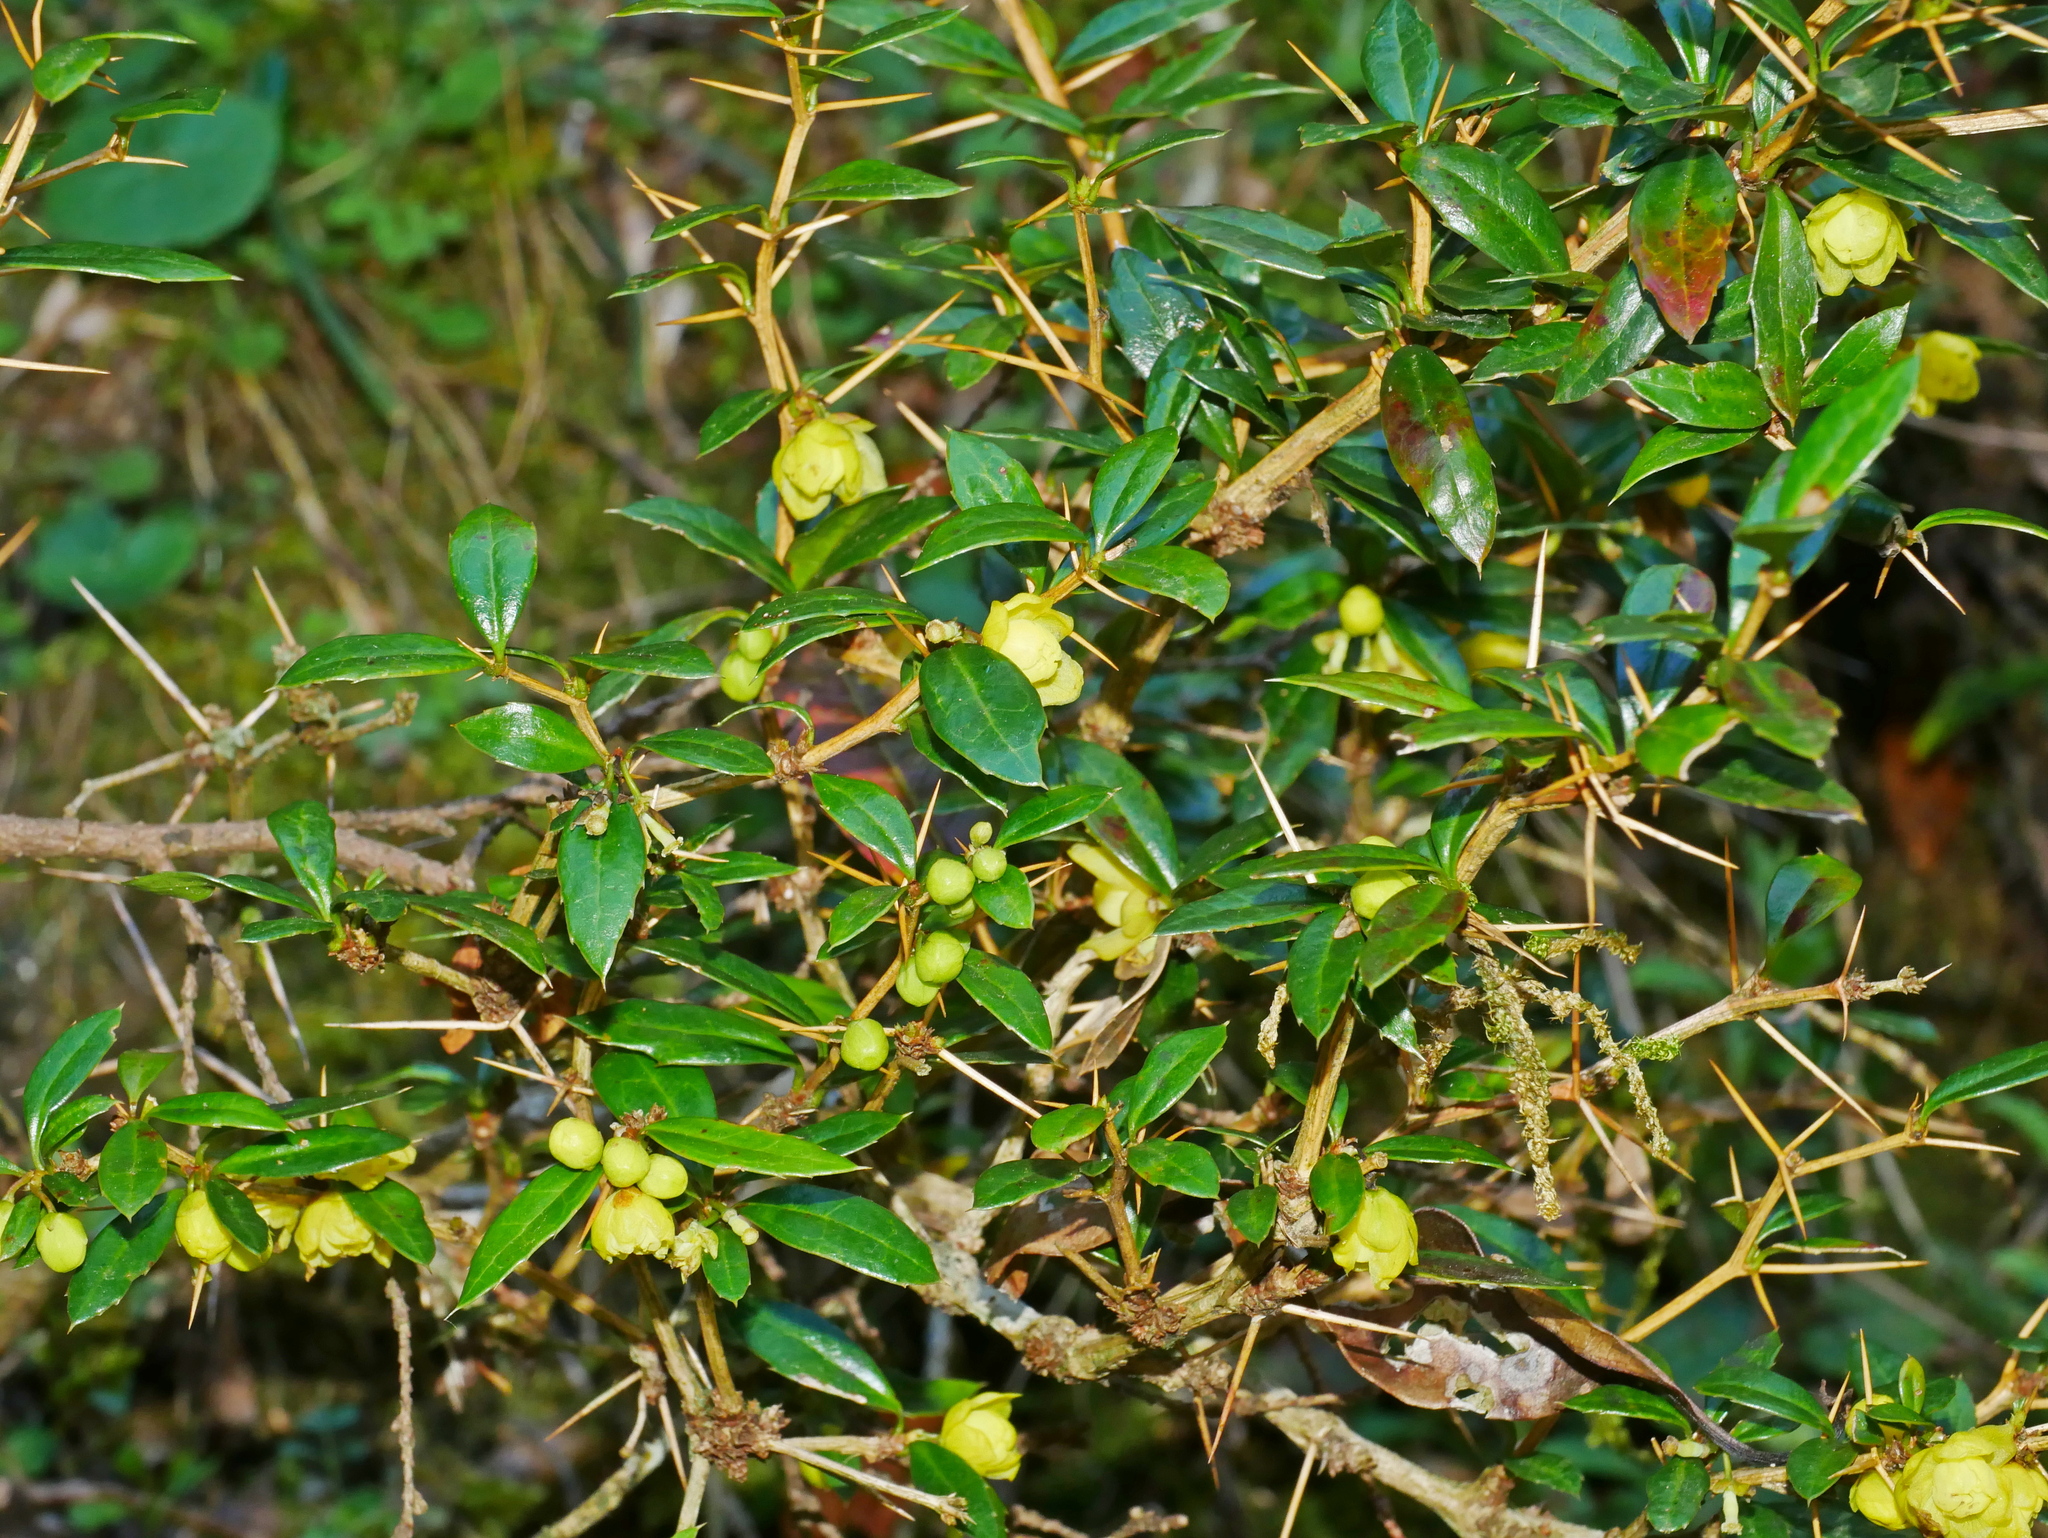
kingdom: Plantae
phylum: Tracheophyta
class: Magnoliopsida
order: Ranunculales
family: Berberidaceae
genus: Berberis
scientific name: Berberis kawakamii
